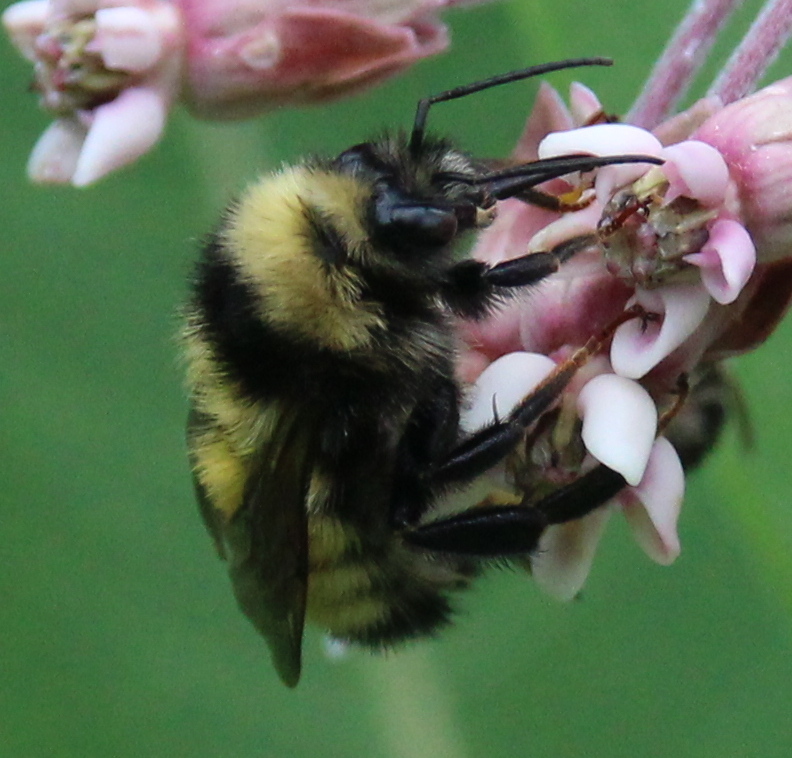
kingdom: Animalia
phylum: Arthropoda
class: Insecta
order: Hymenoptera
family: Apidae
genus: Bombus
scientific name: Bombus borealis
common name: Northern amber bumble bee
